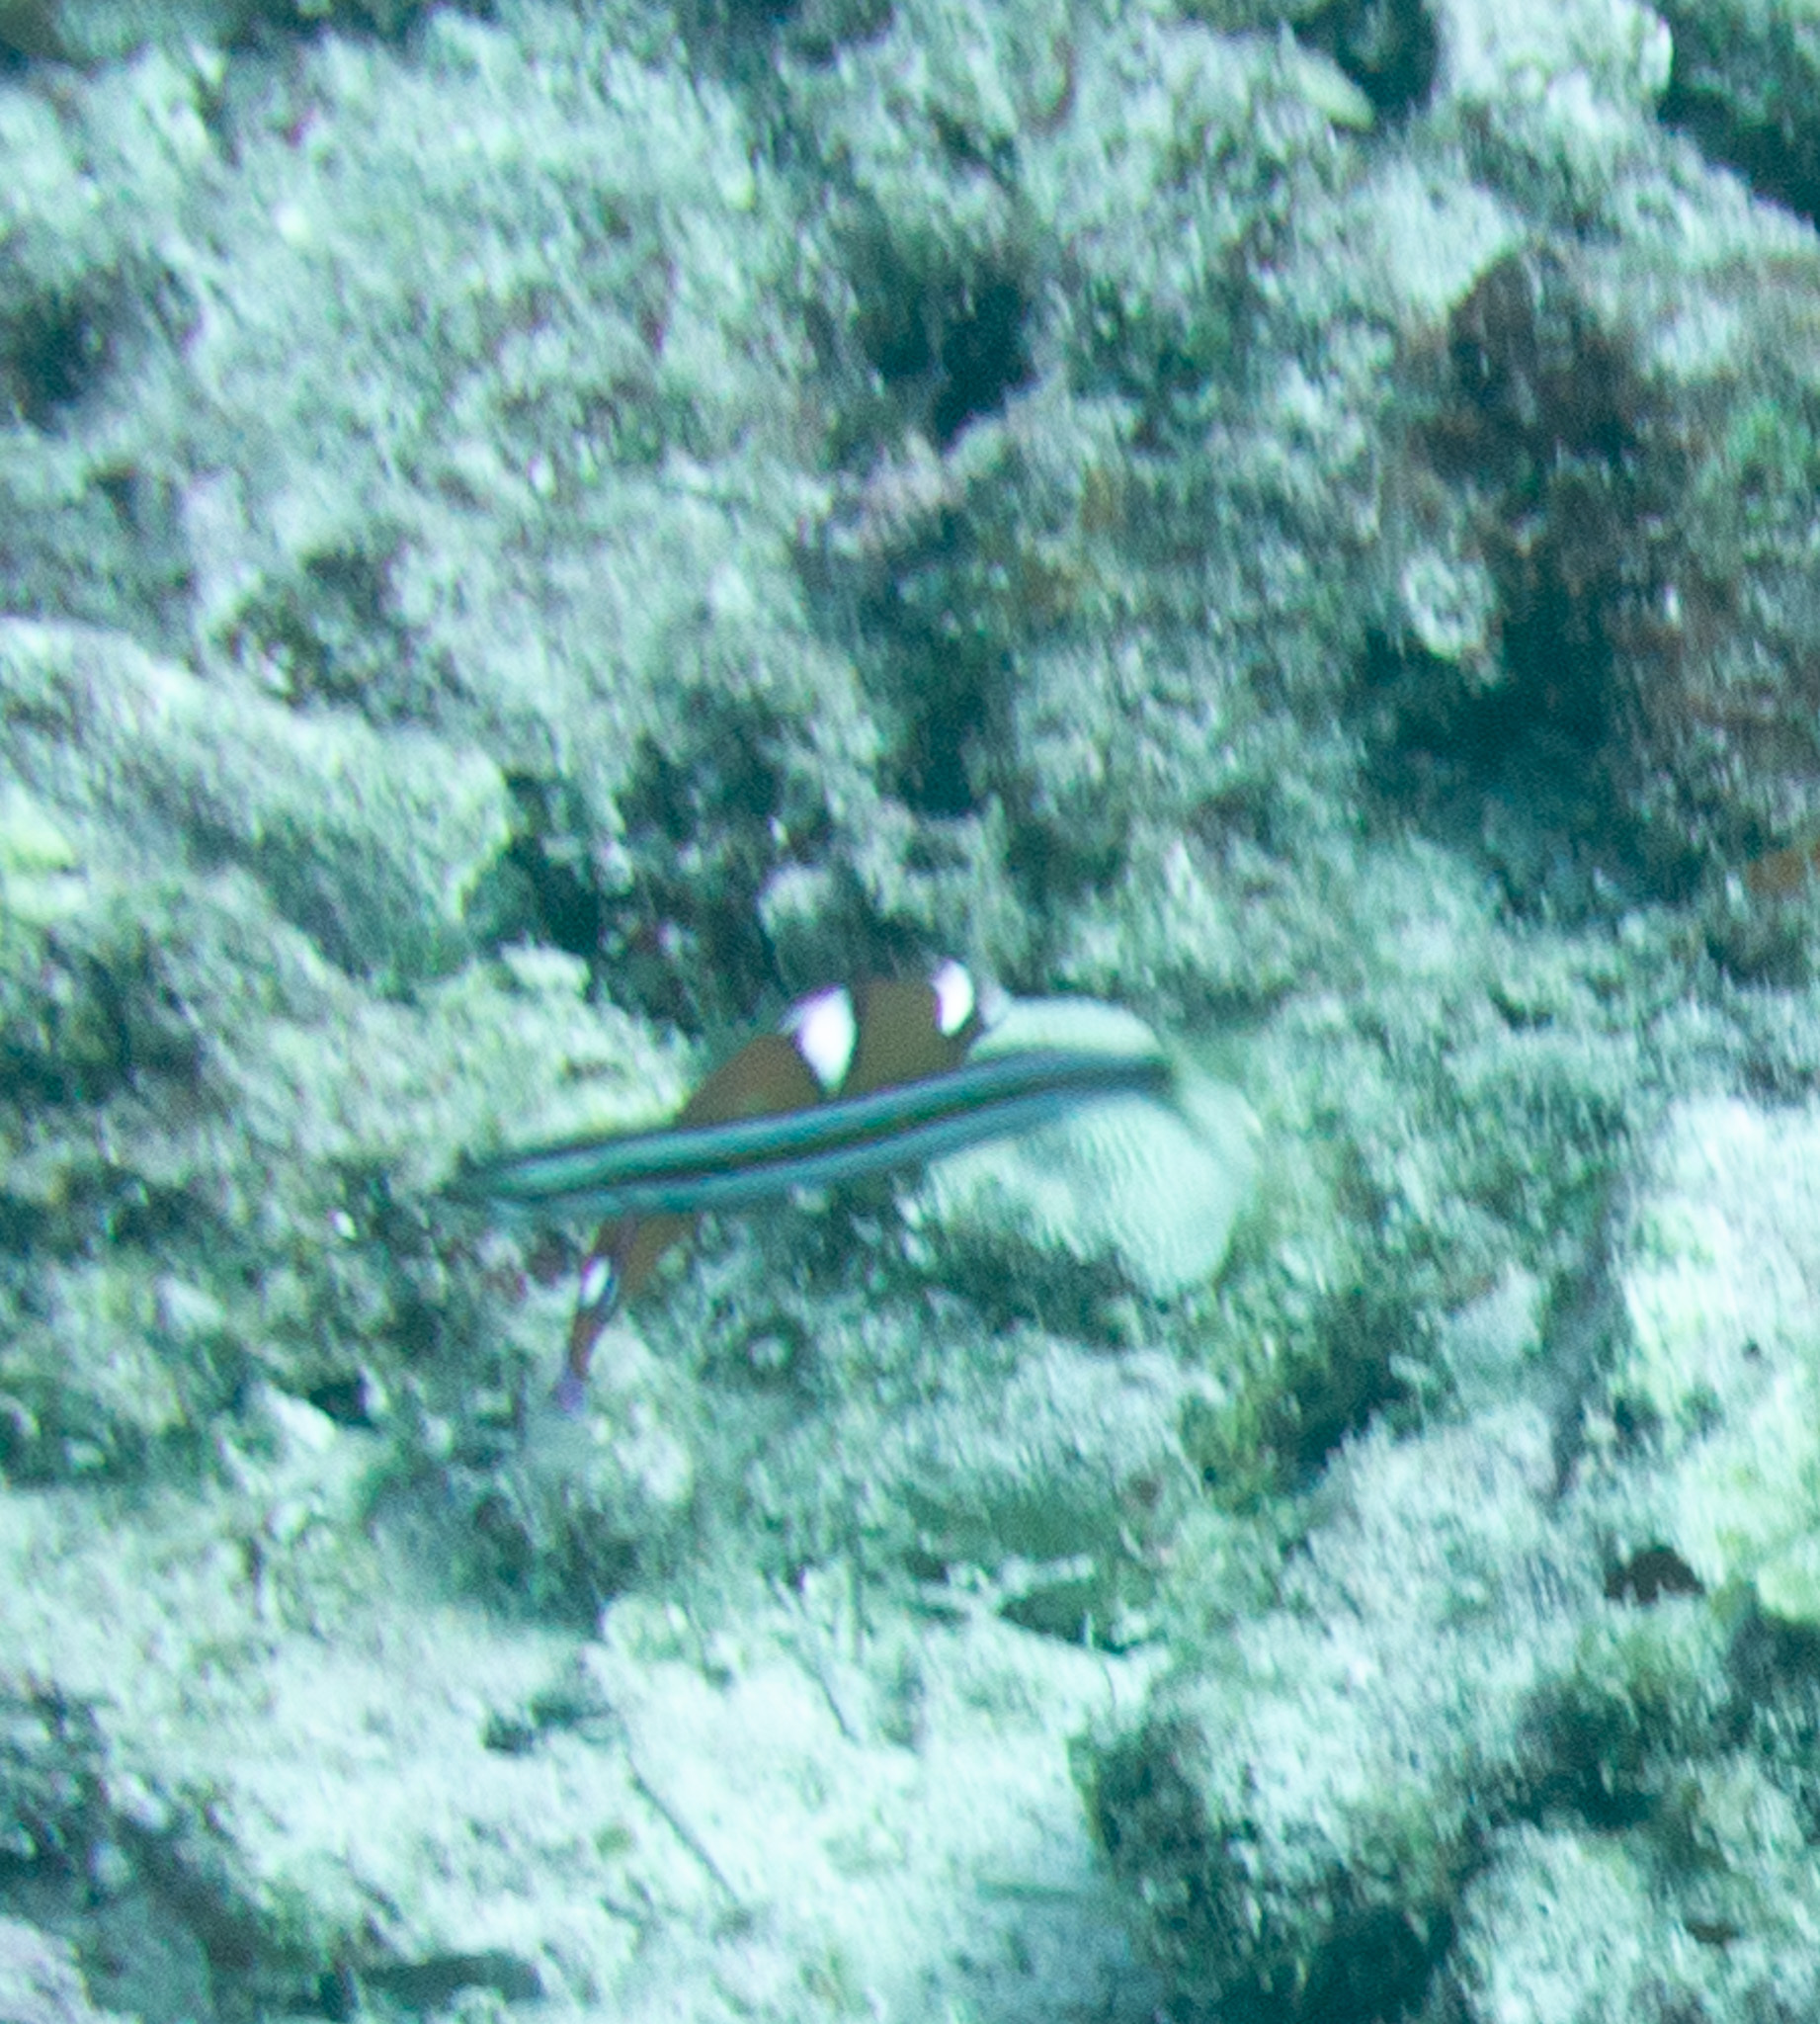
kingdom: Animalia
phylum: Chordata
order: Perciformes
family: Blenniidae
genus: Plagiotremus
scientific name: Plagiotremus ewaensis
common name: Blue-stripe blenny
